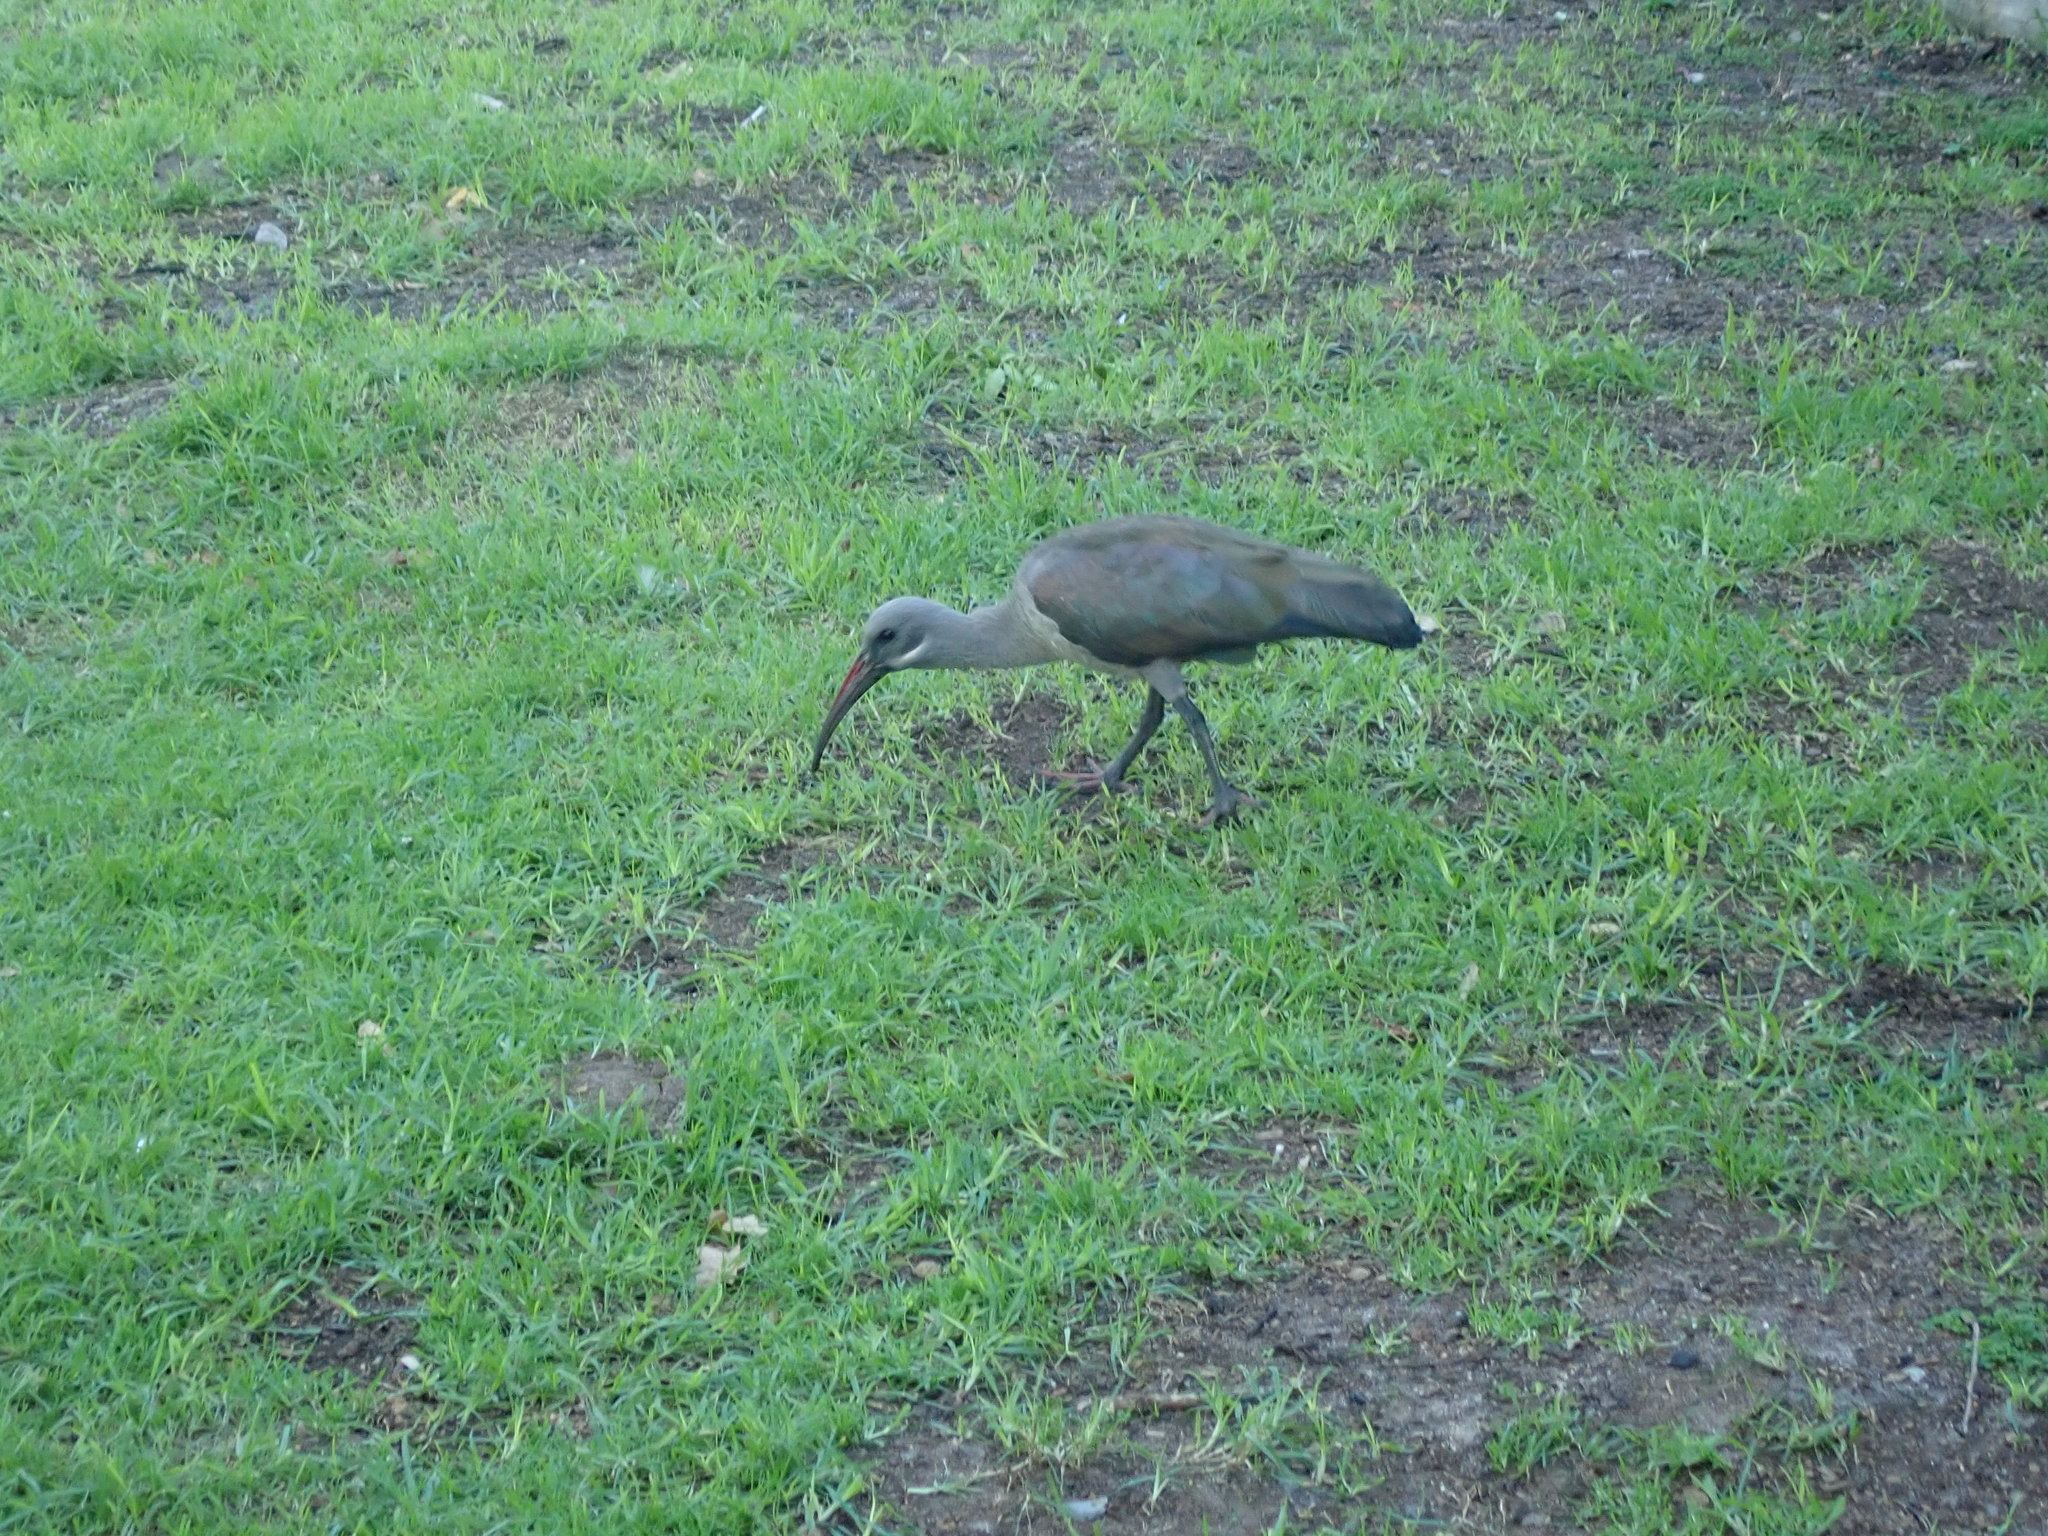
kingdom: Animalia
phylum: Chordata
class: Aves
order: Pelecaniformes
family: Threskiornithidae
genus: Bostrychia
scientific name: Bostrychia hagedash
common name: Hadada ibis
